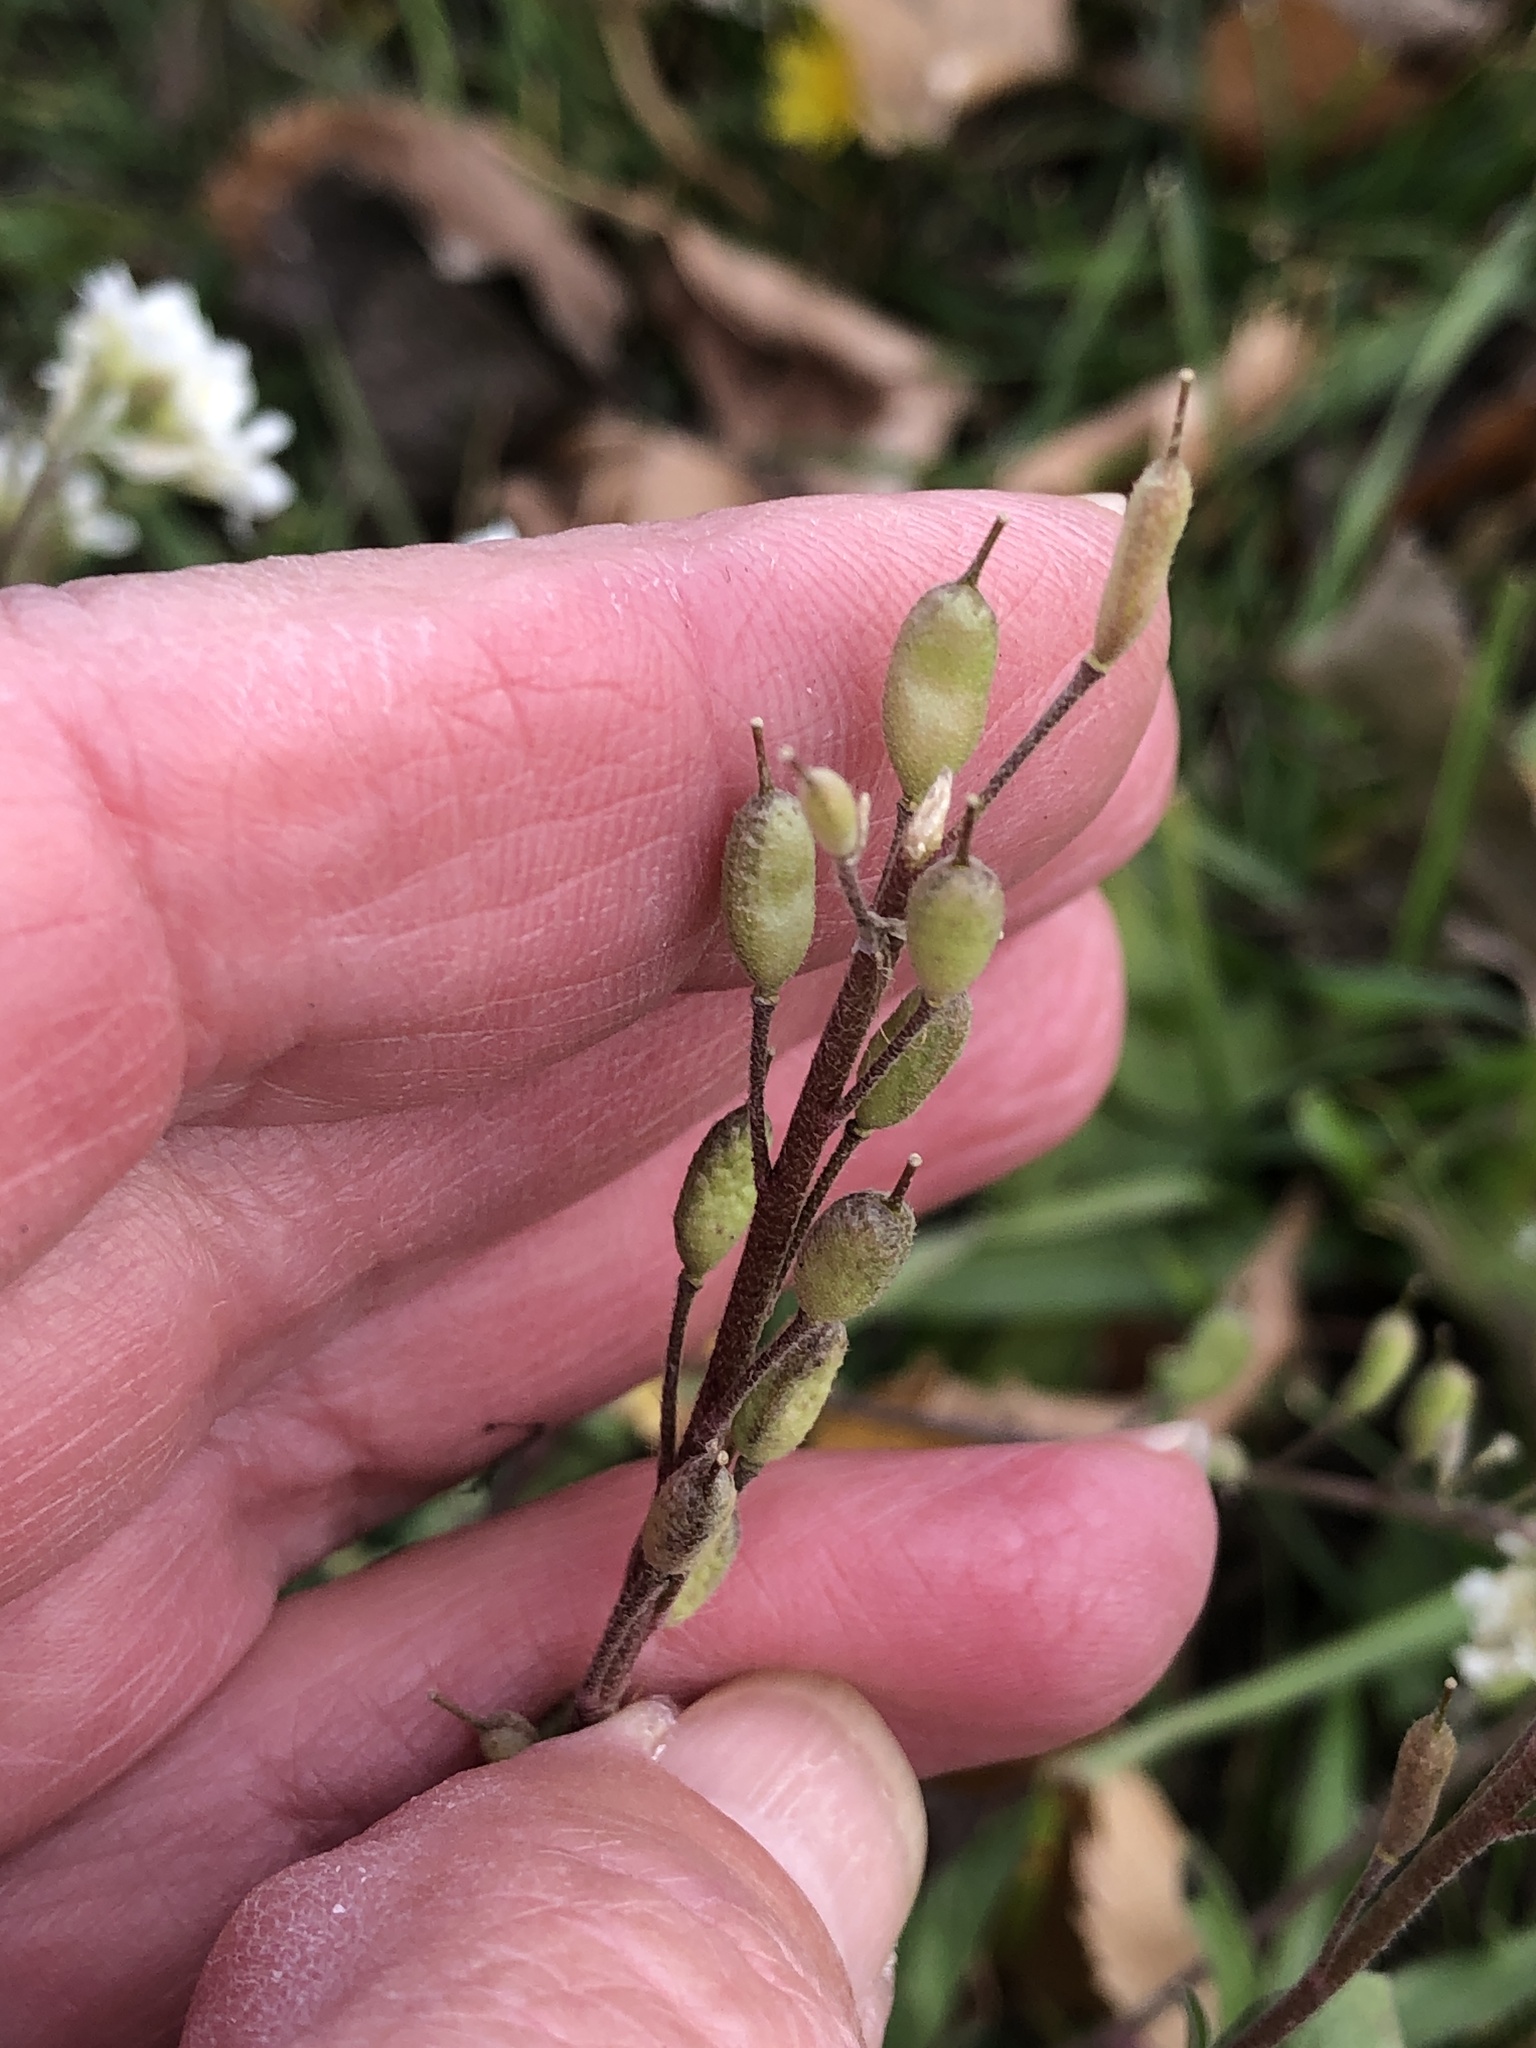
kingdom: Plantae
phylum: Tracheophyta
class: Magnoliopsida
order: Brassicales
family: Brassicaceae
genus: Berteroa
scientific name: Berteroa incana
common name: Hoary alison
